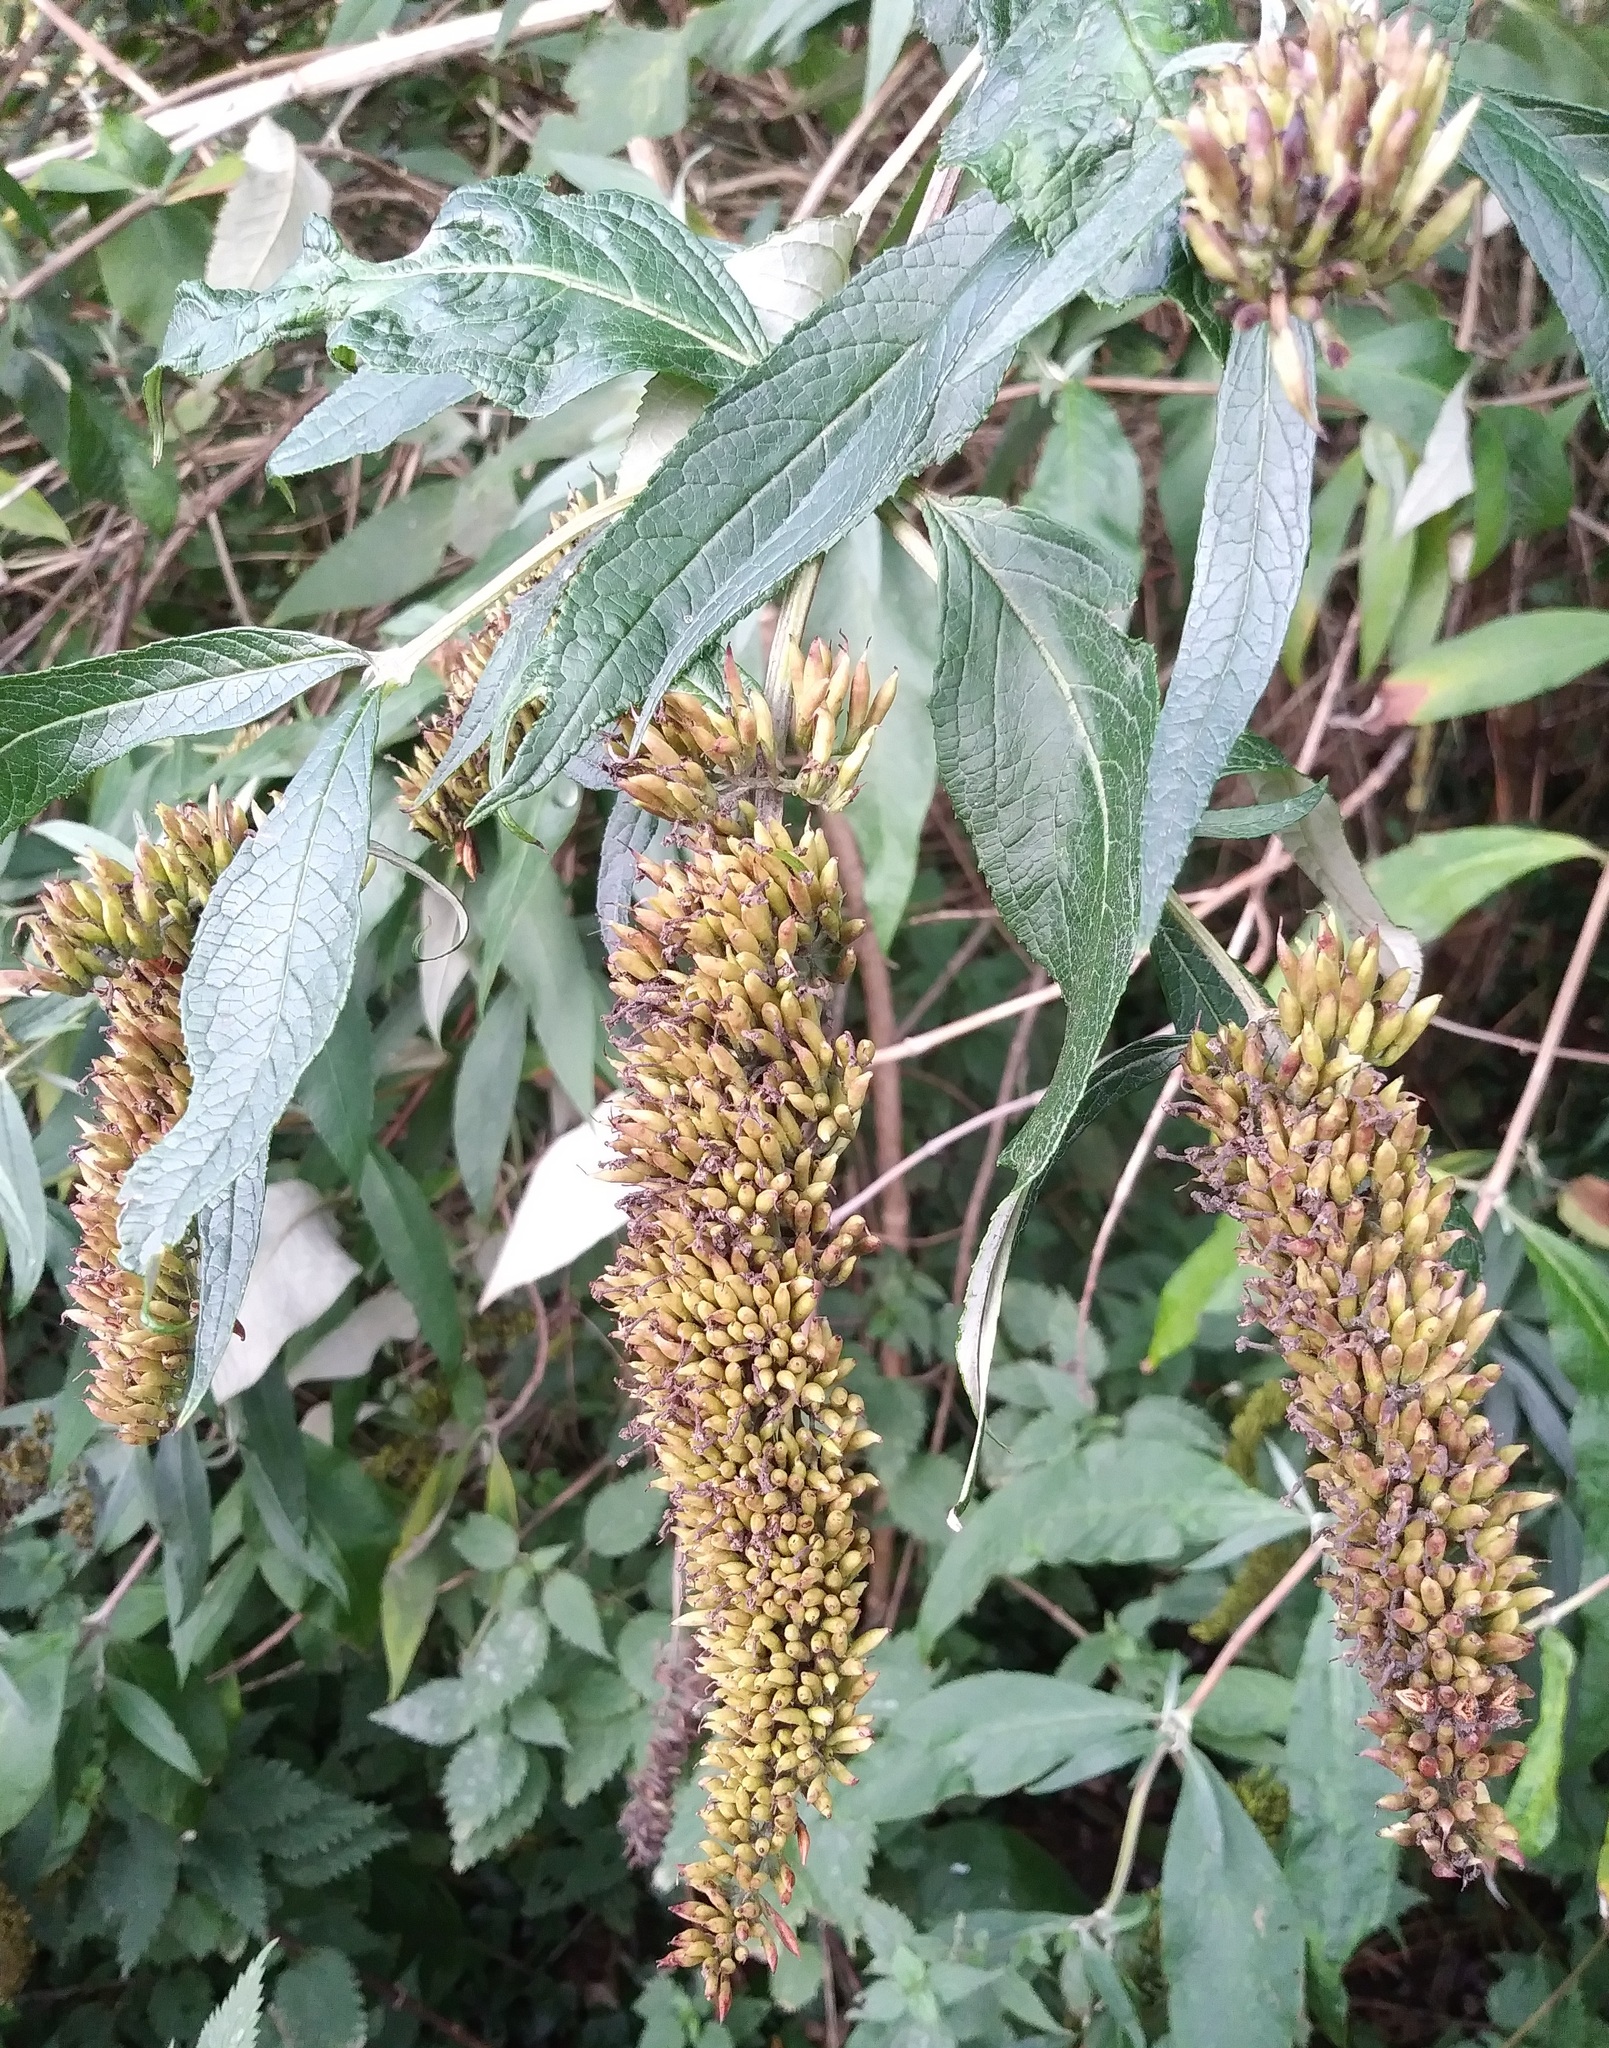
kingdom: Plantae
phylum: Tracheophyta
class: Magnoliopsida
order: Lamiales
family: Scrophulariaceae
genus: Buddleja
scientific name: Buddleja davidii
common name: Butterfly-bush
